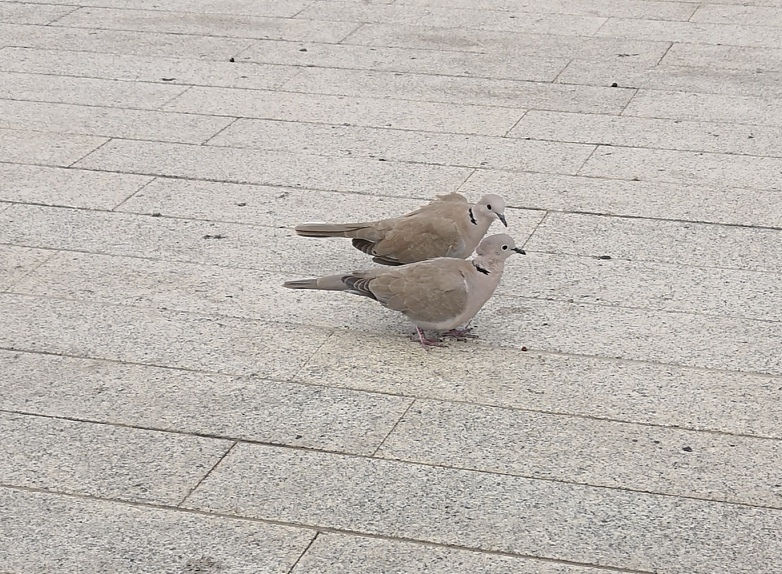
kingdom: Animalia
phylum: Chordata
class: Aves
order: Columbiformes
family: Columbidae
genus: Streptopelia
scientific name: Streptopelia decaocto
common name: Eurasian collared dove
